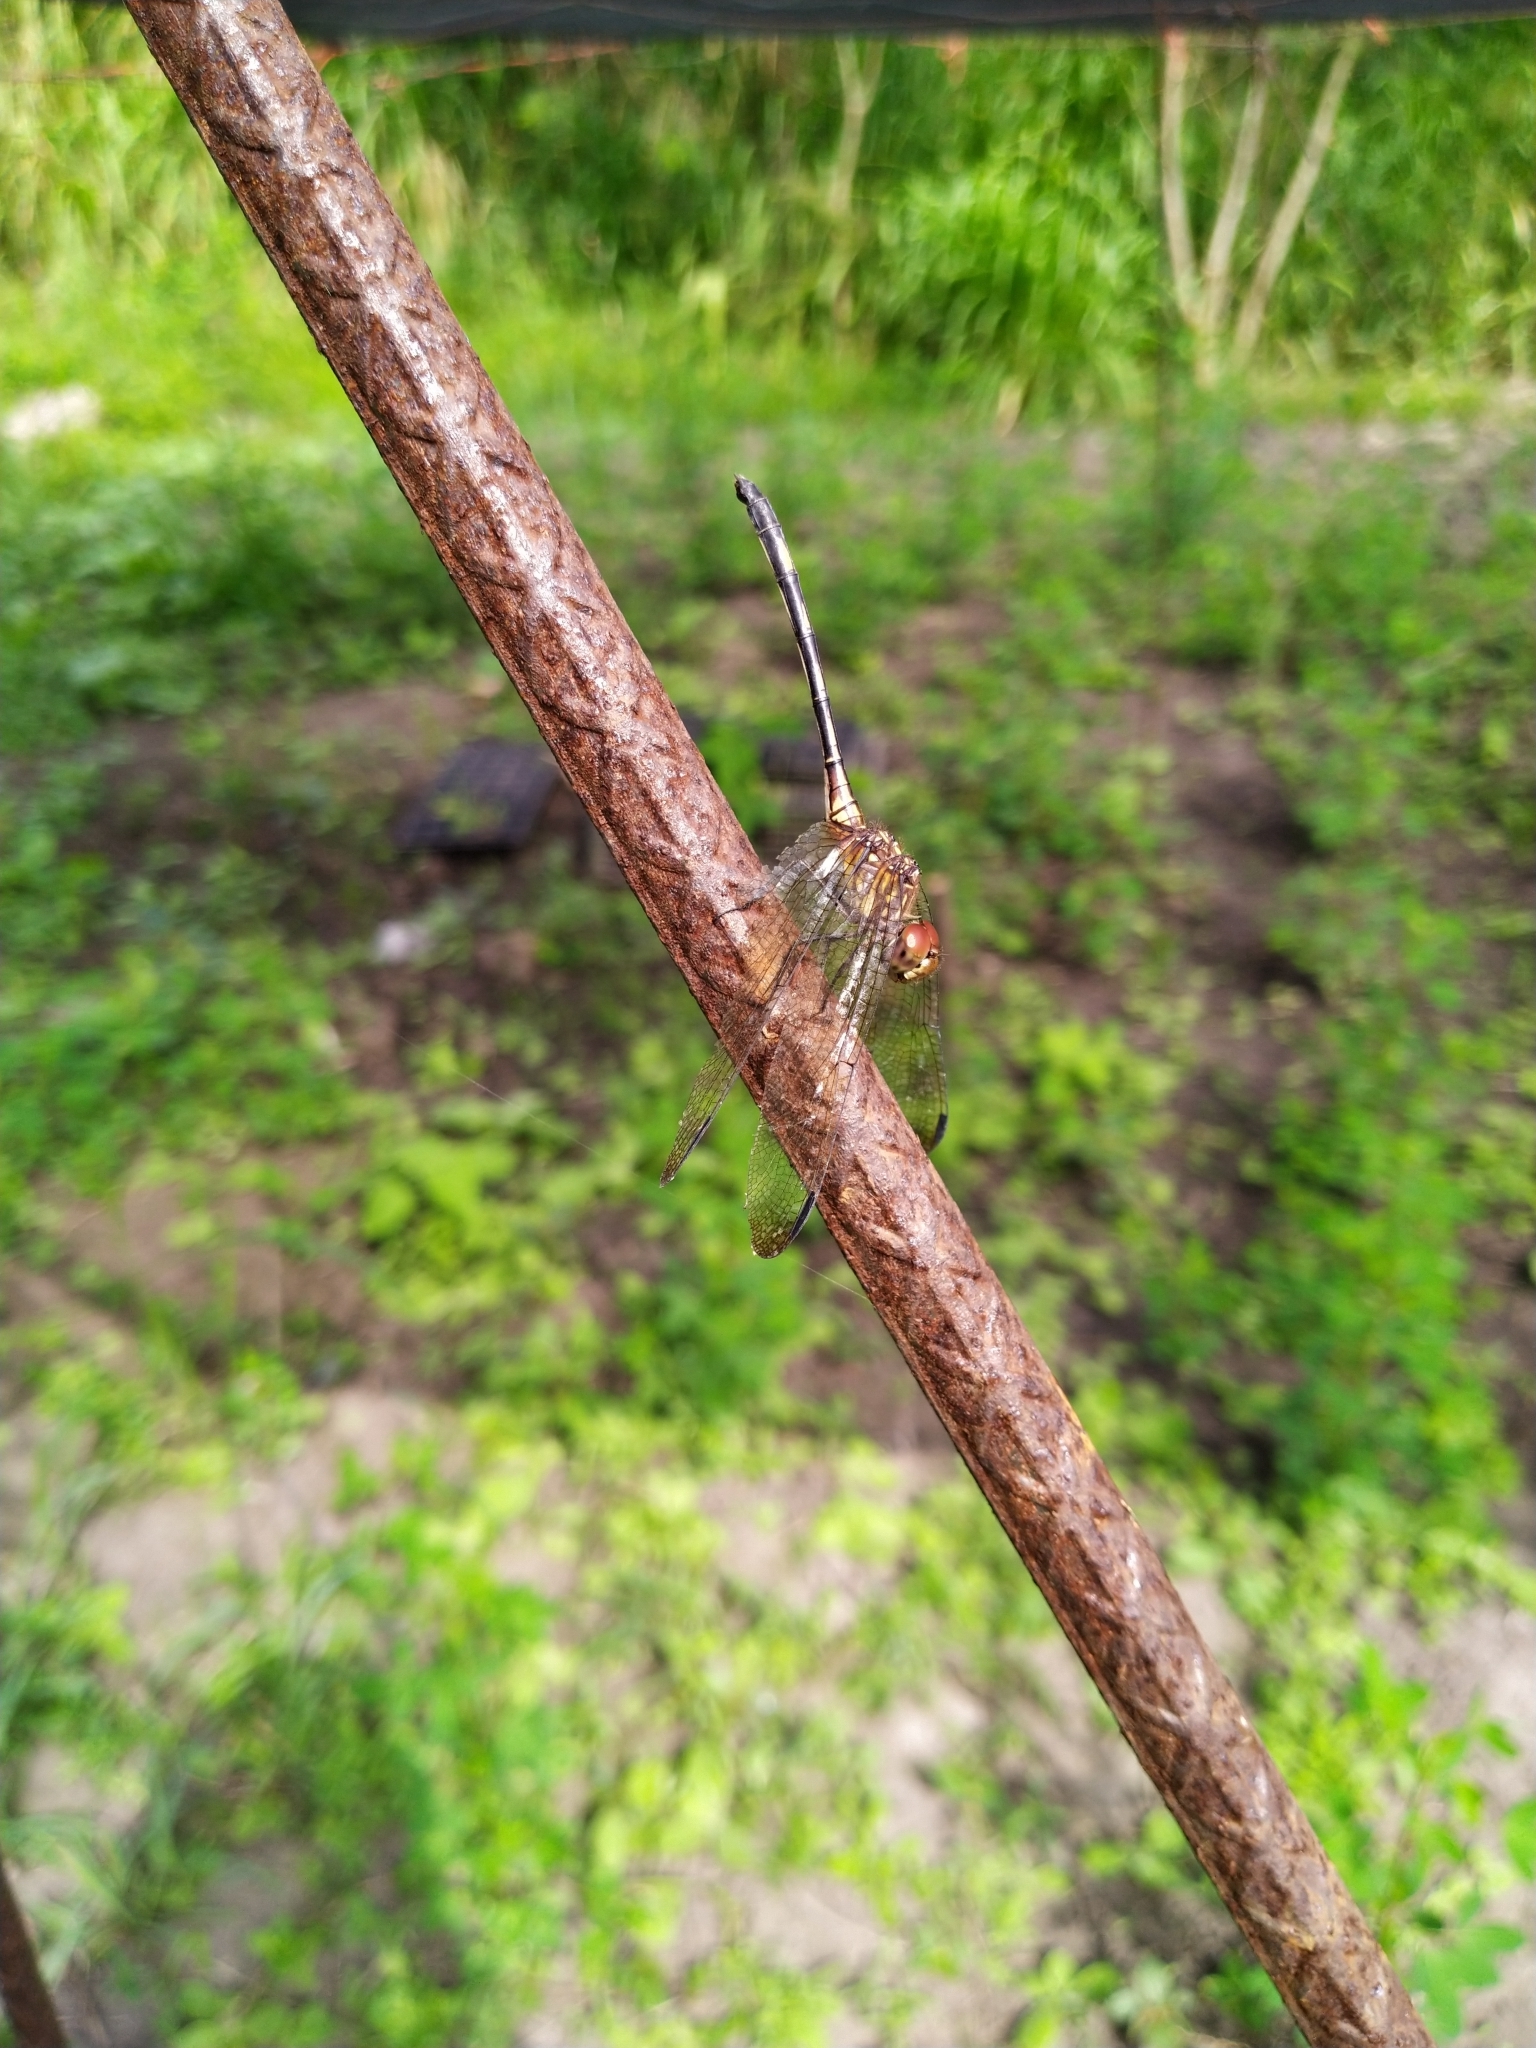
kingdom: Animalia
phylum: Arthropoda
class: Insecta
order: Odonata
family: Libellulidae
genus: Dythemis
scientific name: Dythemis sterilis
